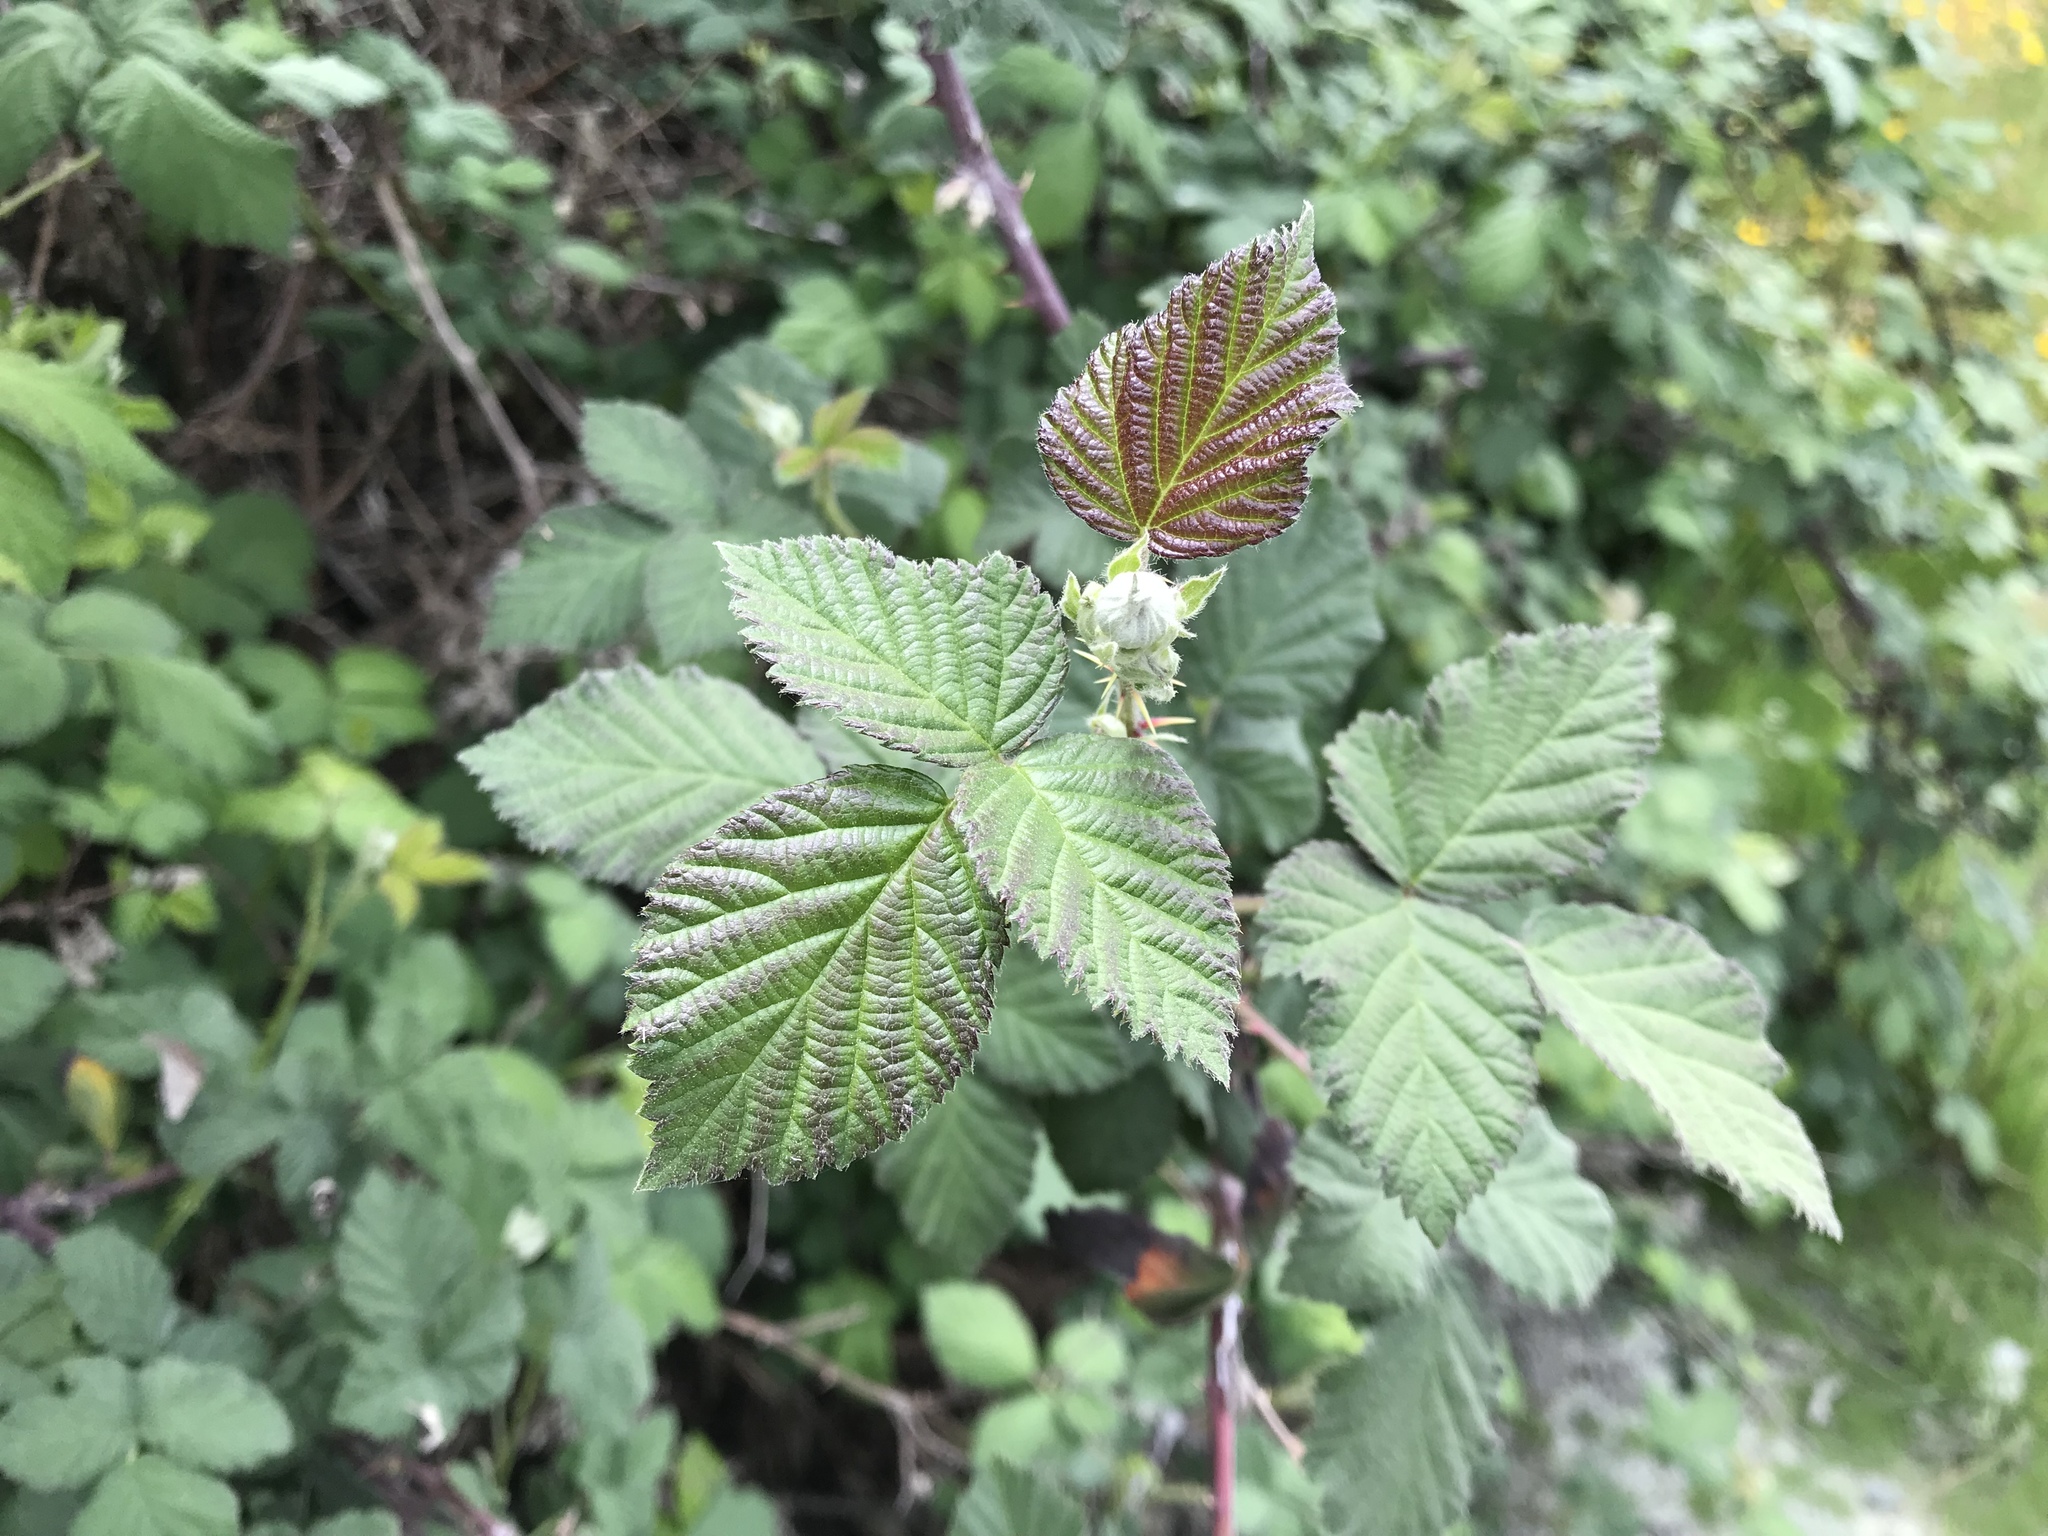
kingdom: Plantae
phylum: Tracheophyta
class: Magnoliopsida
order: Rosales
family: Rosaceae
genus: Rubus
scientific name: Rubus ursinus
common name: Pacific blackberry
